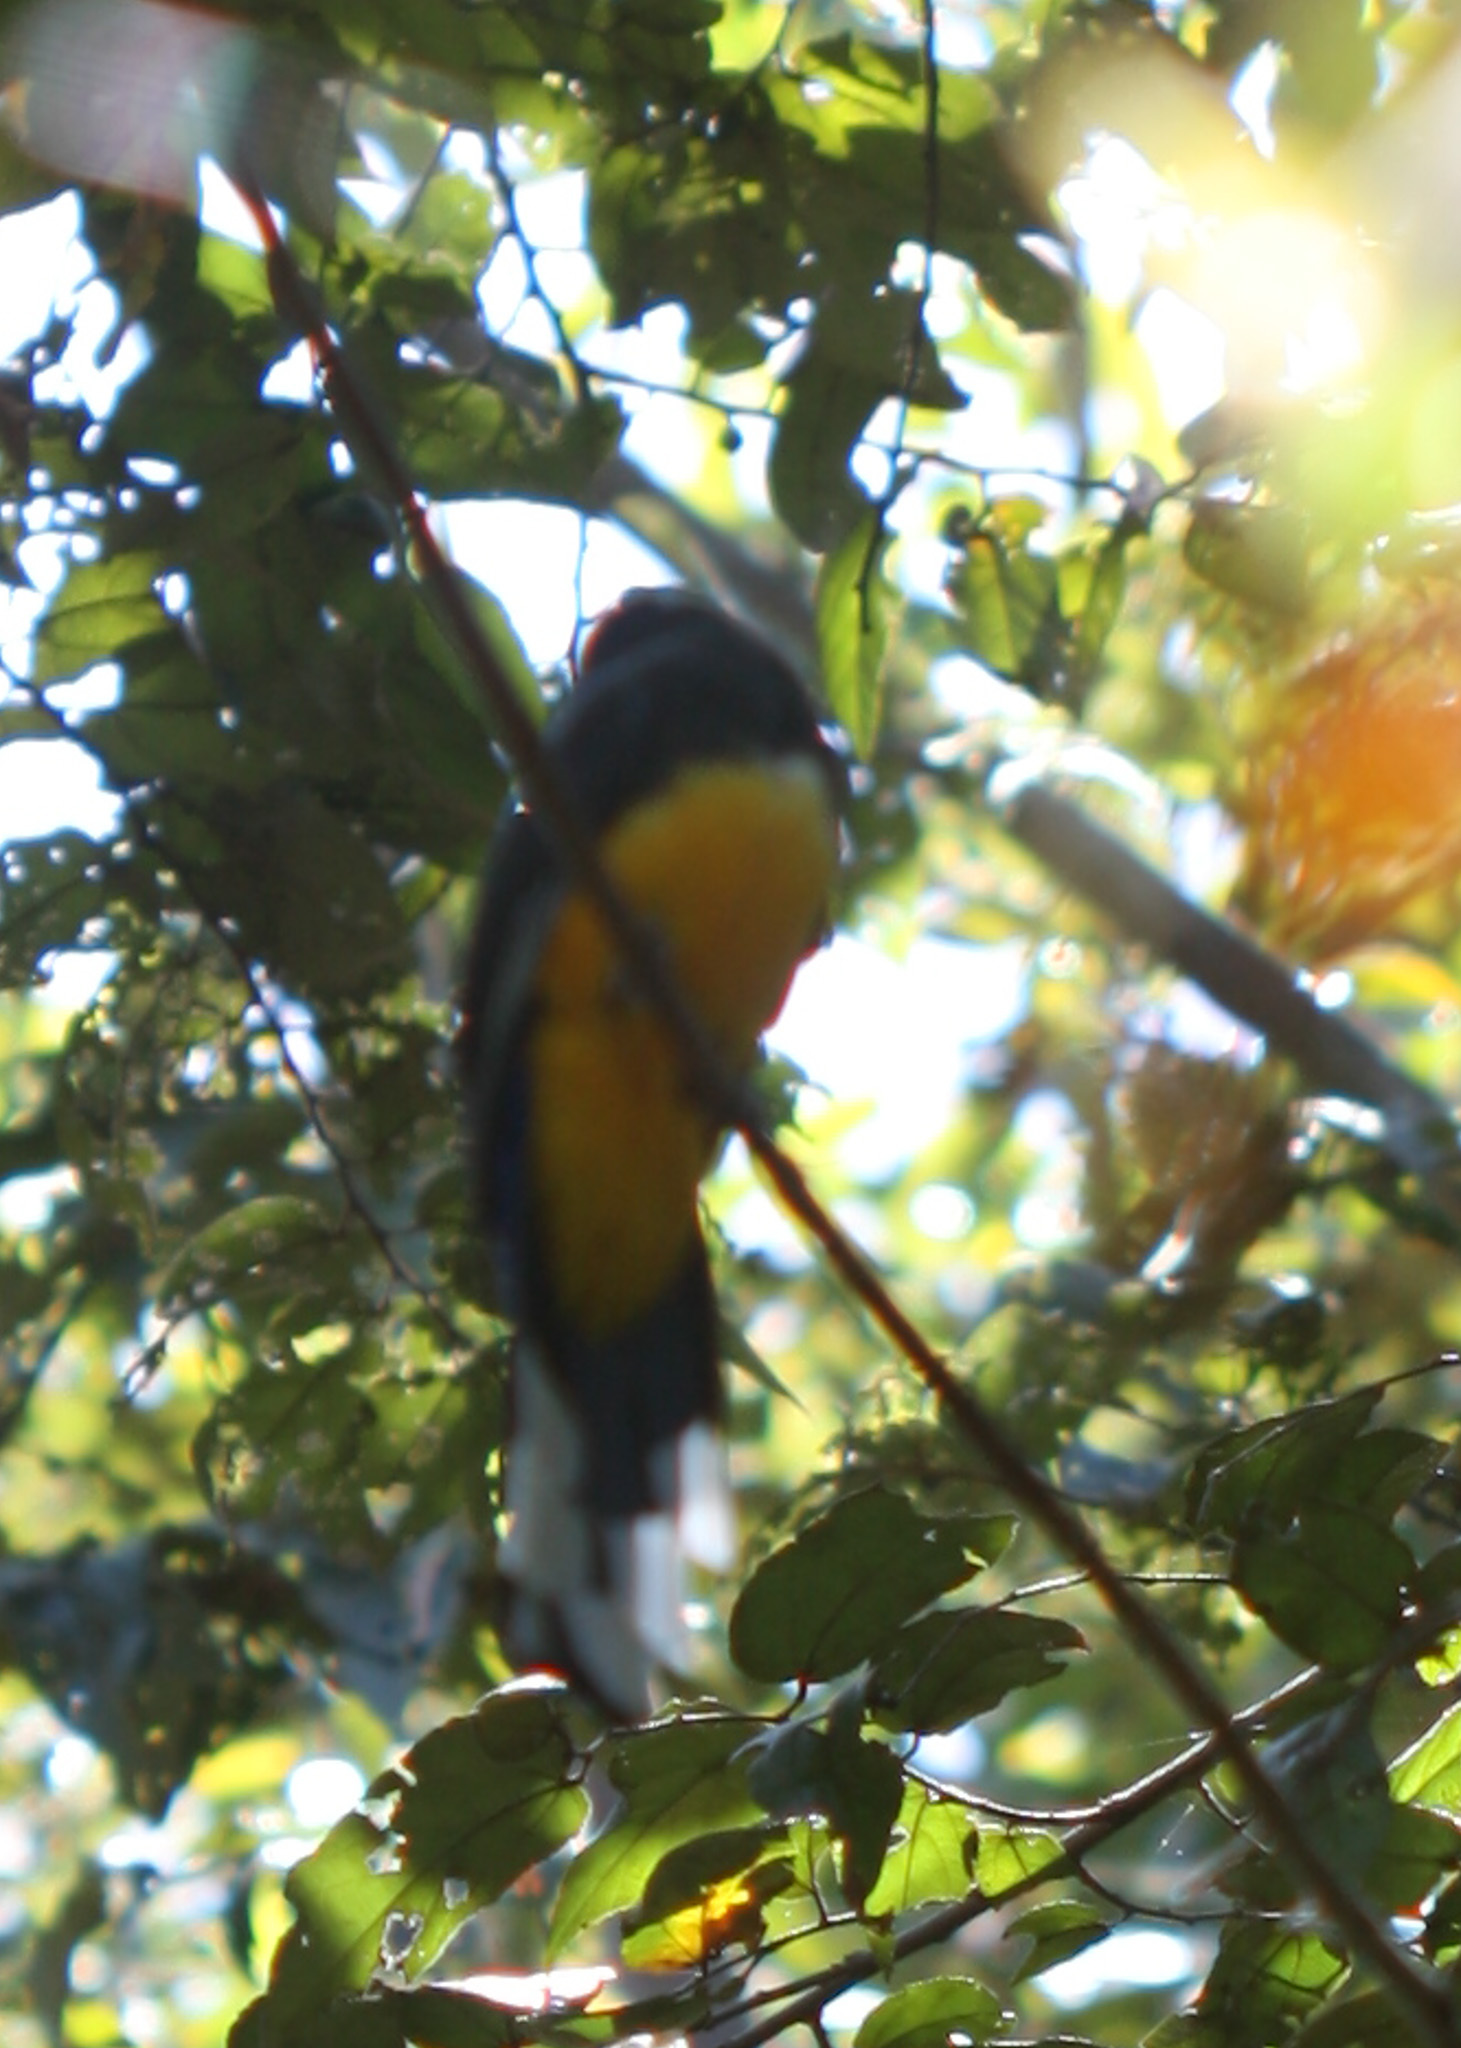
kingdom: Animalia
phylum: Chordata
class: Aves
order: Trogoniformes
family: Trogonidae
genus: Trogon
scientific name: Trogon melanocephalus
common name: Black-headed trogon
